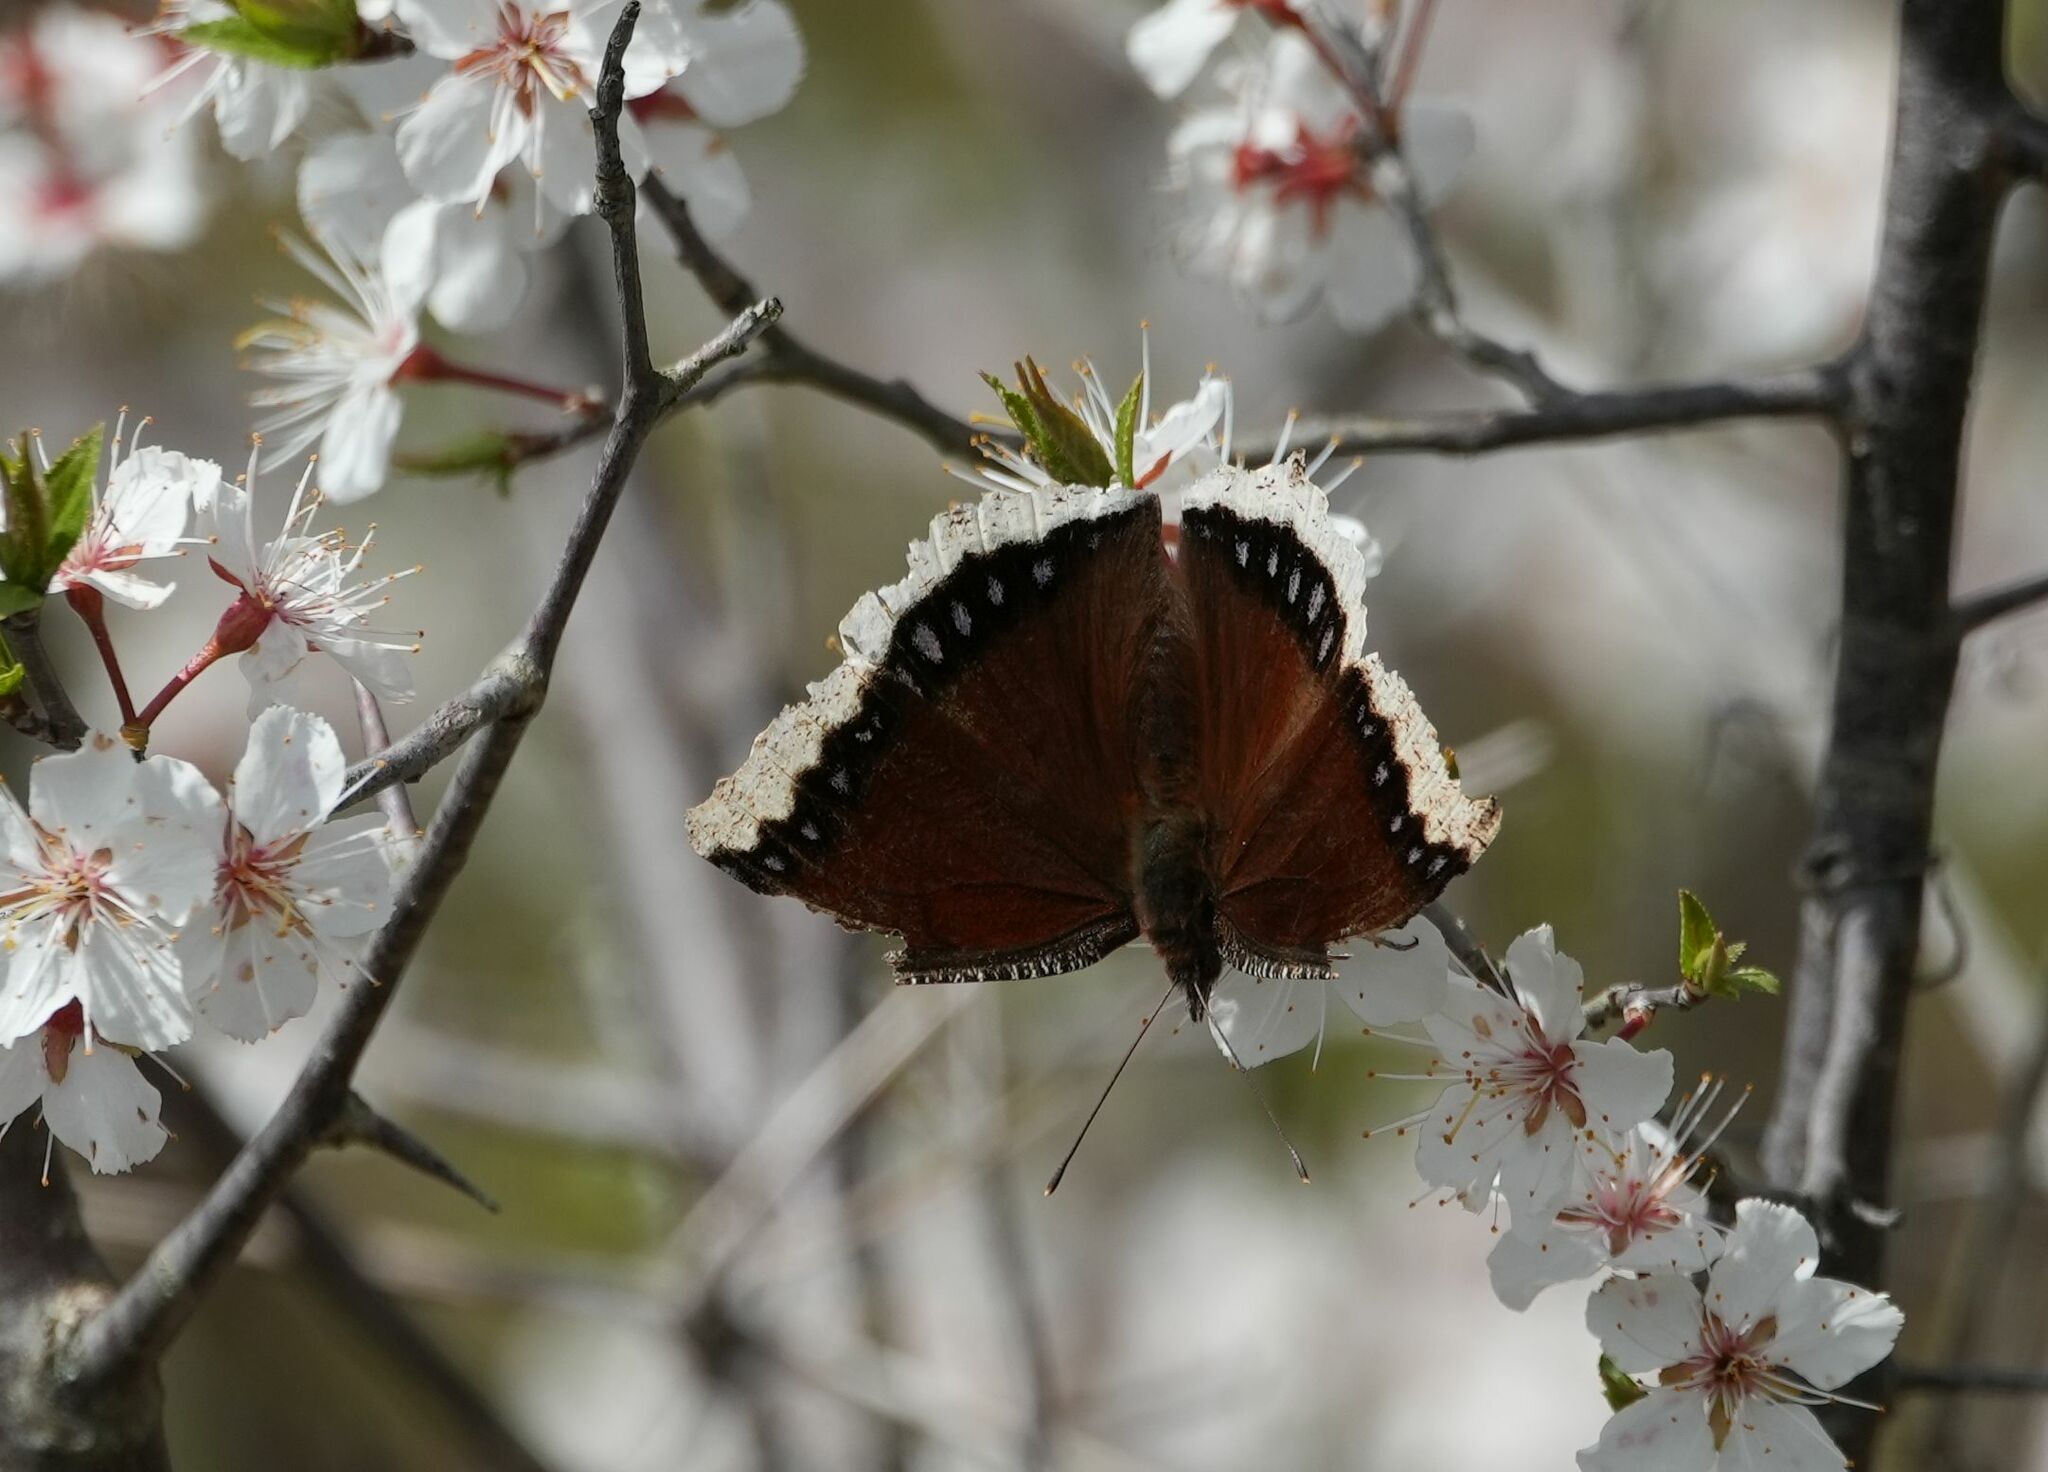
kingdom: Animalia
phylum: Arthropoda
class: Insecta
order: Lepidoptera
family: Nymphalidae
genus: Nymphalis
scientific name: Nymphalis antiopa
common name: Camberwell beauty
